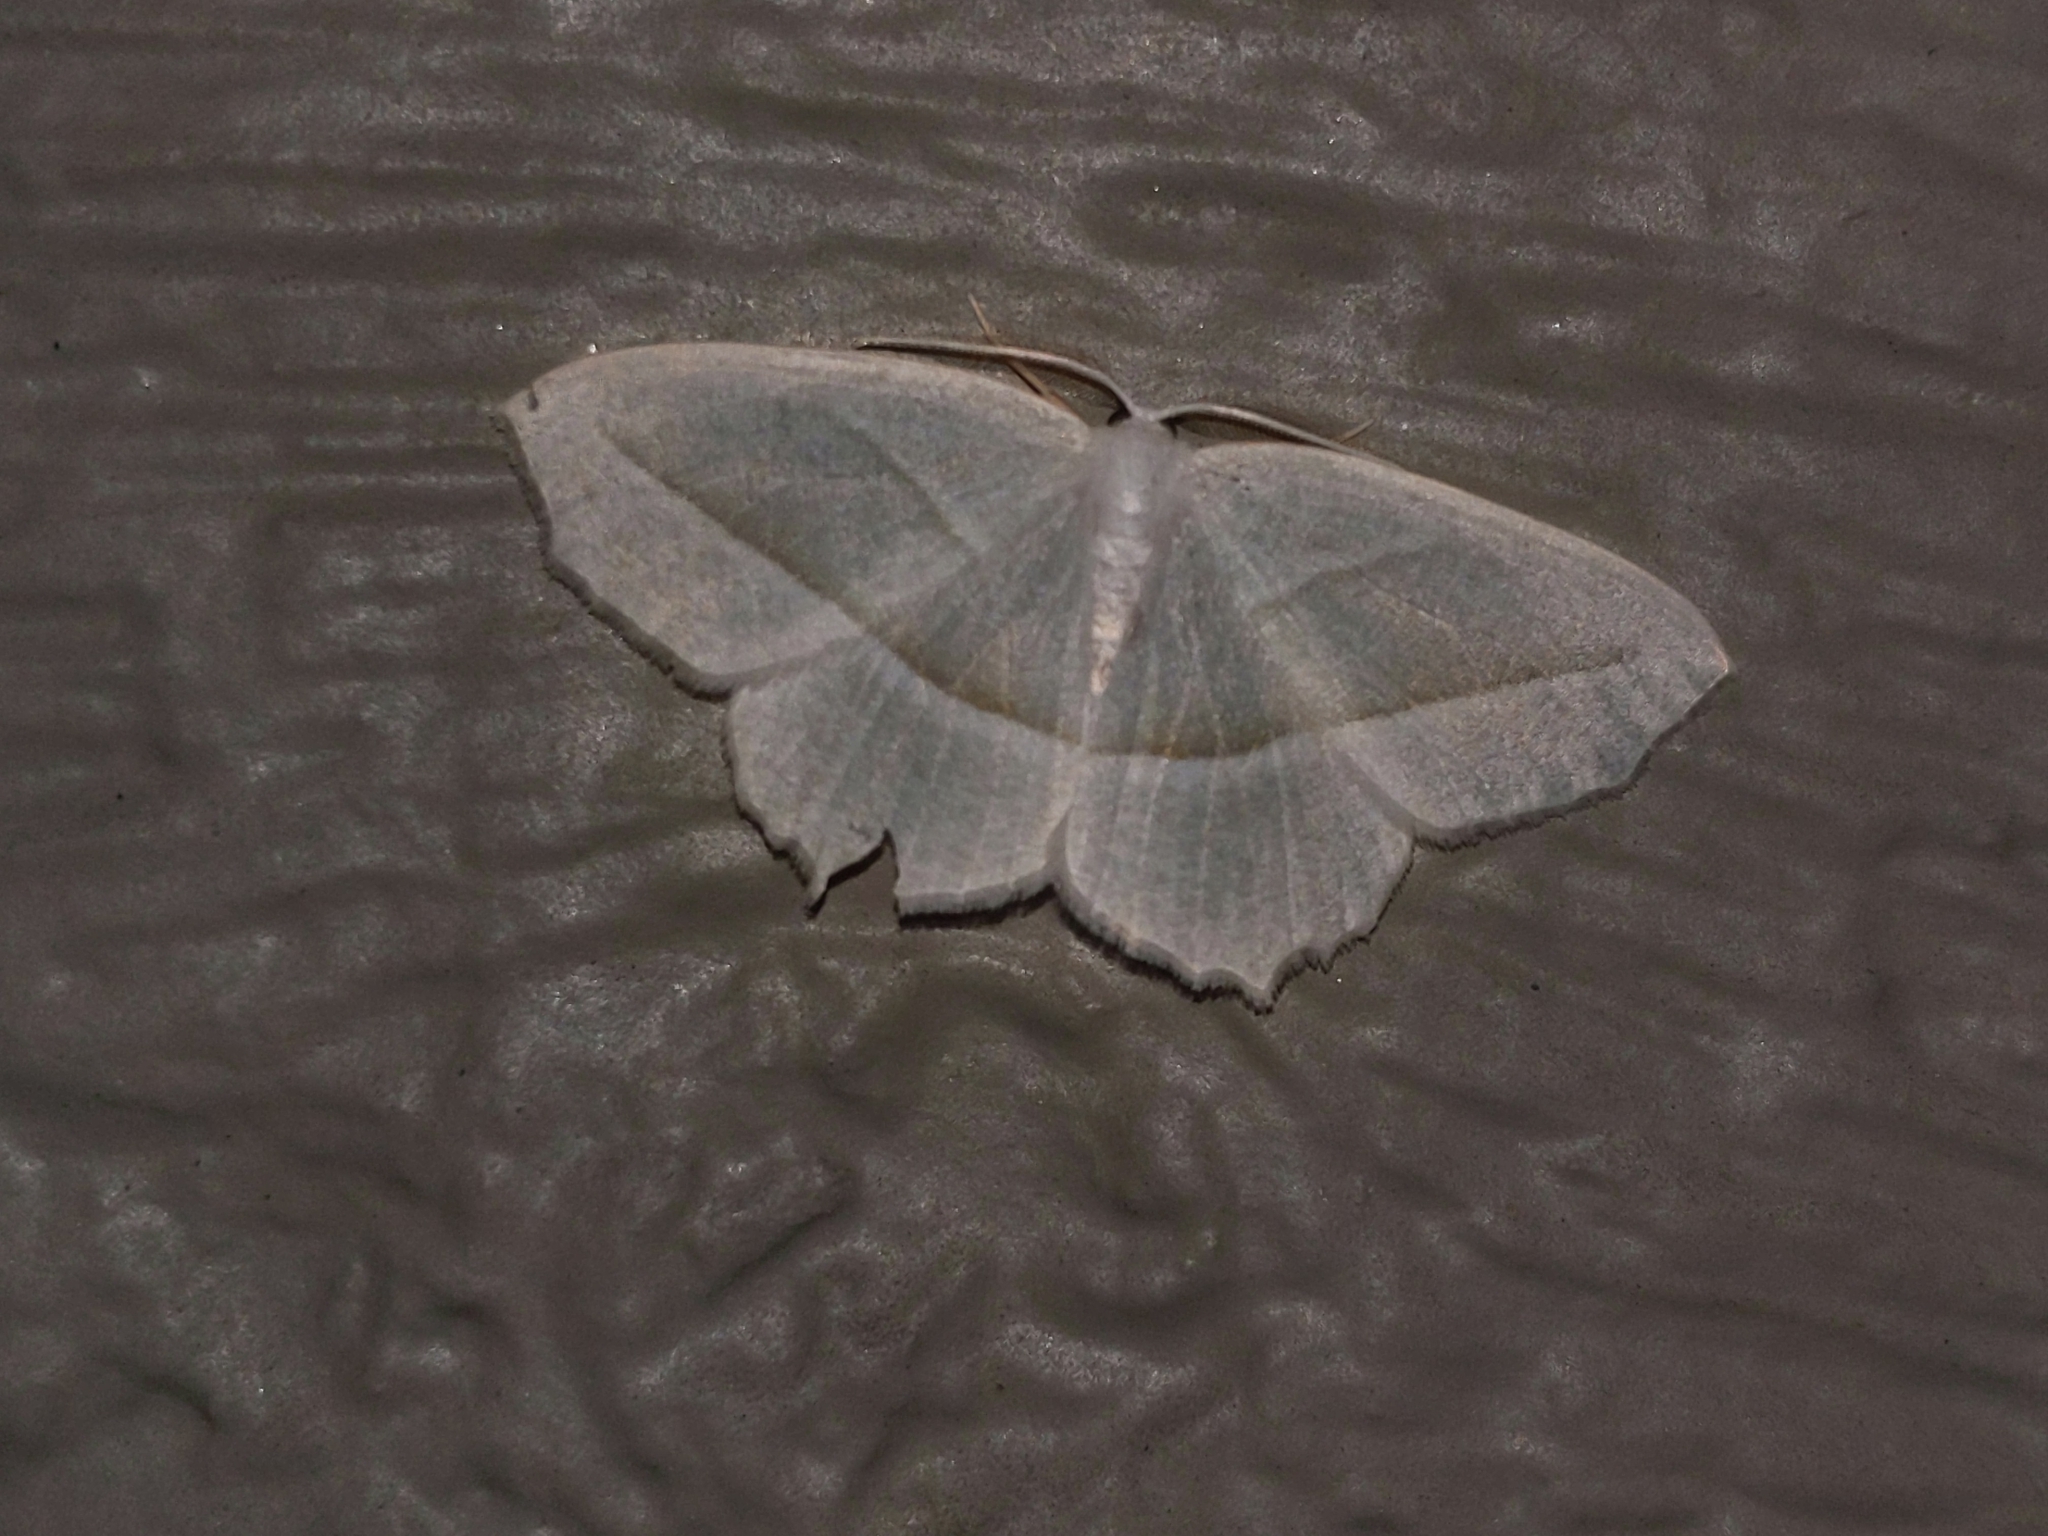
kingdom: Animalia
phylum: Arthropoda
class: Insecta
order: Lepidoptera
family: Geometridae
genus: Campaea
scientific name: Campaea perlata
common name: Fringed looper
